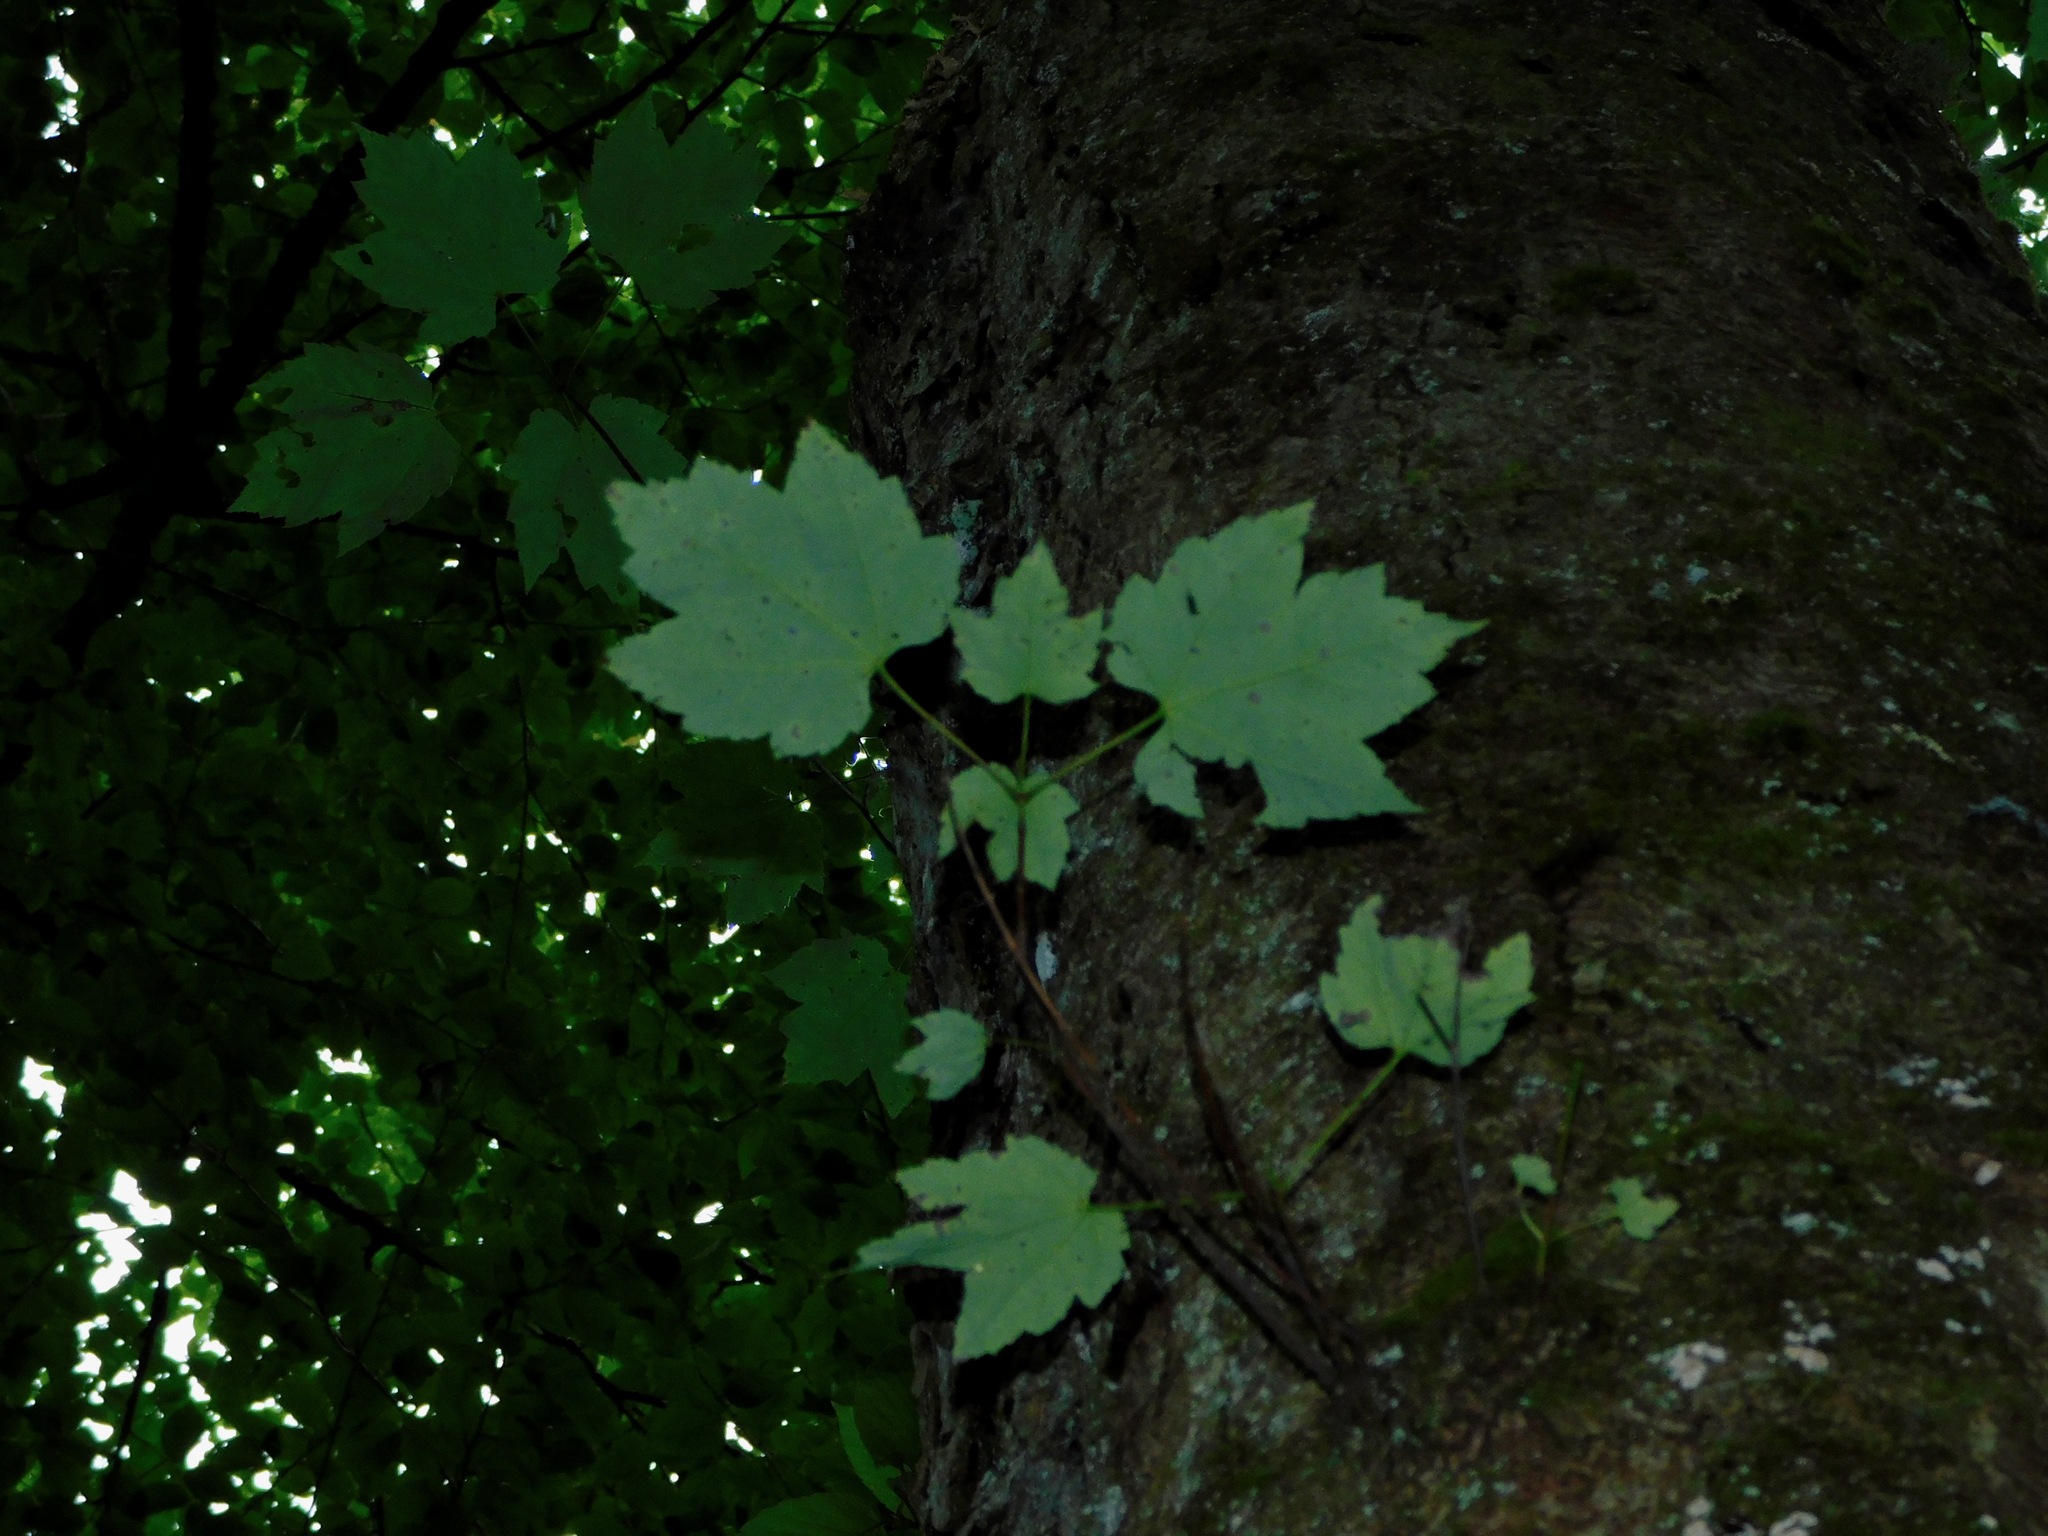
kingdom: Plantae
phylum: Tracheophyta
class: Magnoliopsida
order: Sapindales
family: Sapindaceae
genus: Acer
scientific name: Acer freemanii
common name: Freeman maple
